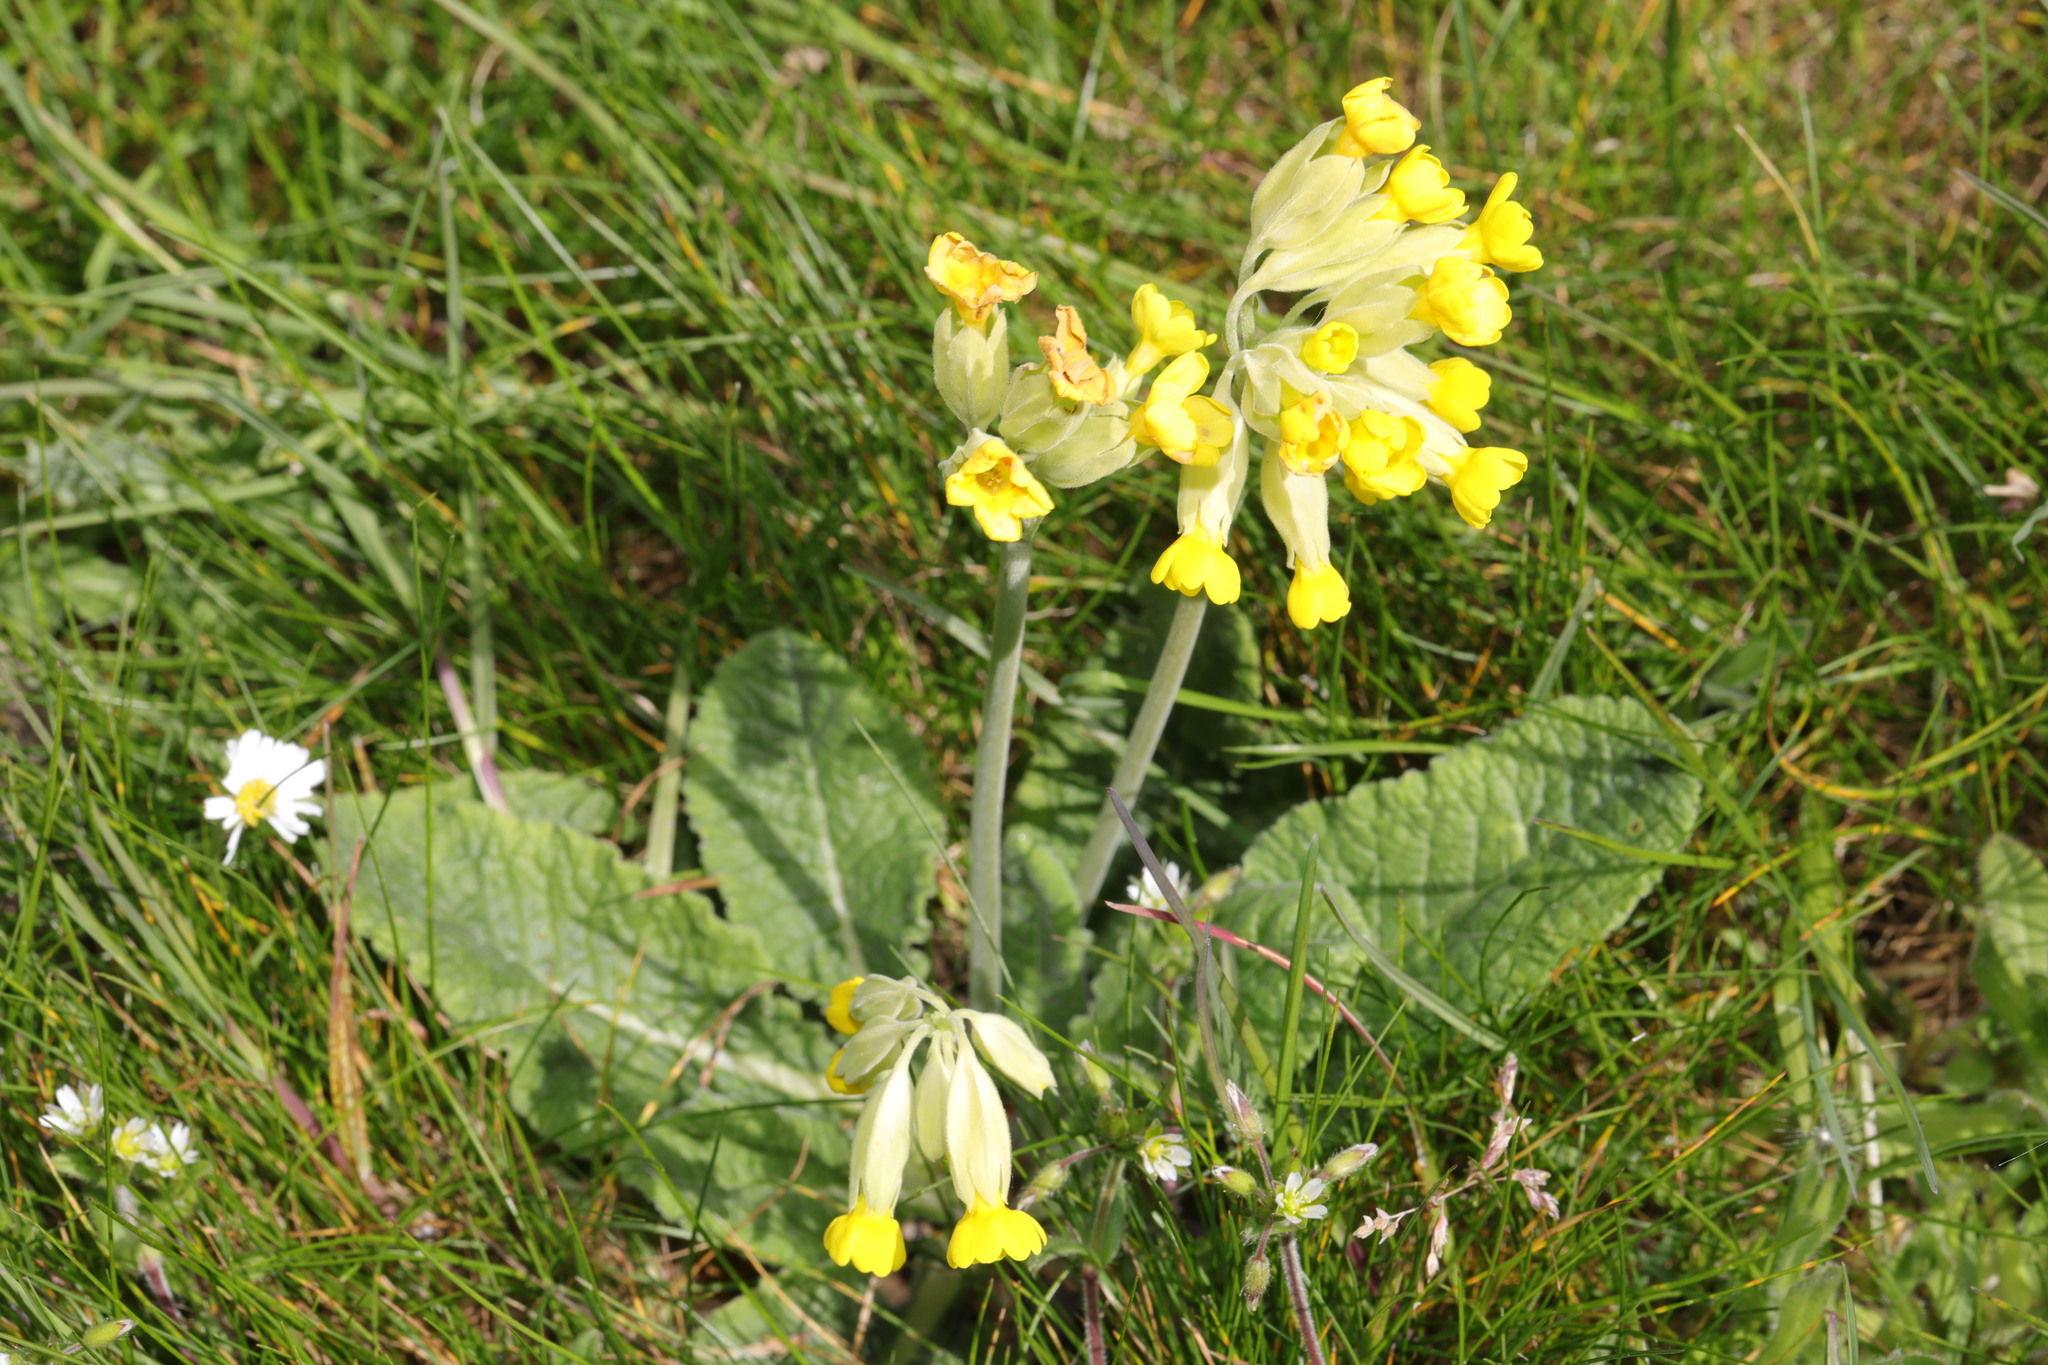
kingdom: Plantae
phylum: Tracheophyta
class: Magnoliopsida
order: Ericales
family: Primulaceae
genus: Primula
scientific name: Primula veris
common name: Cowslip
